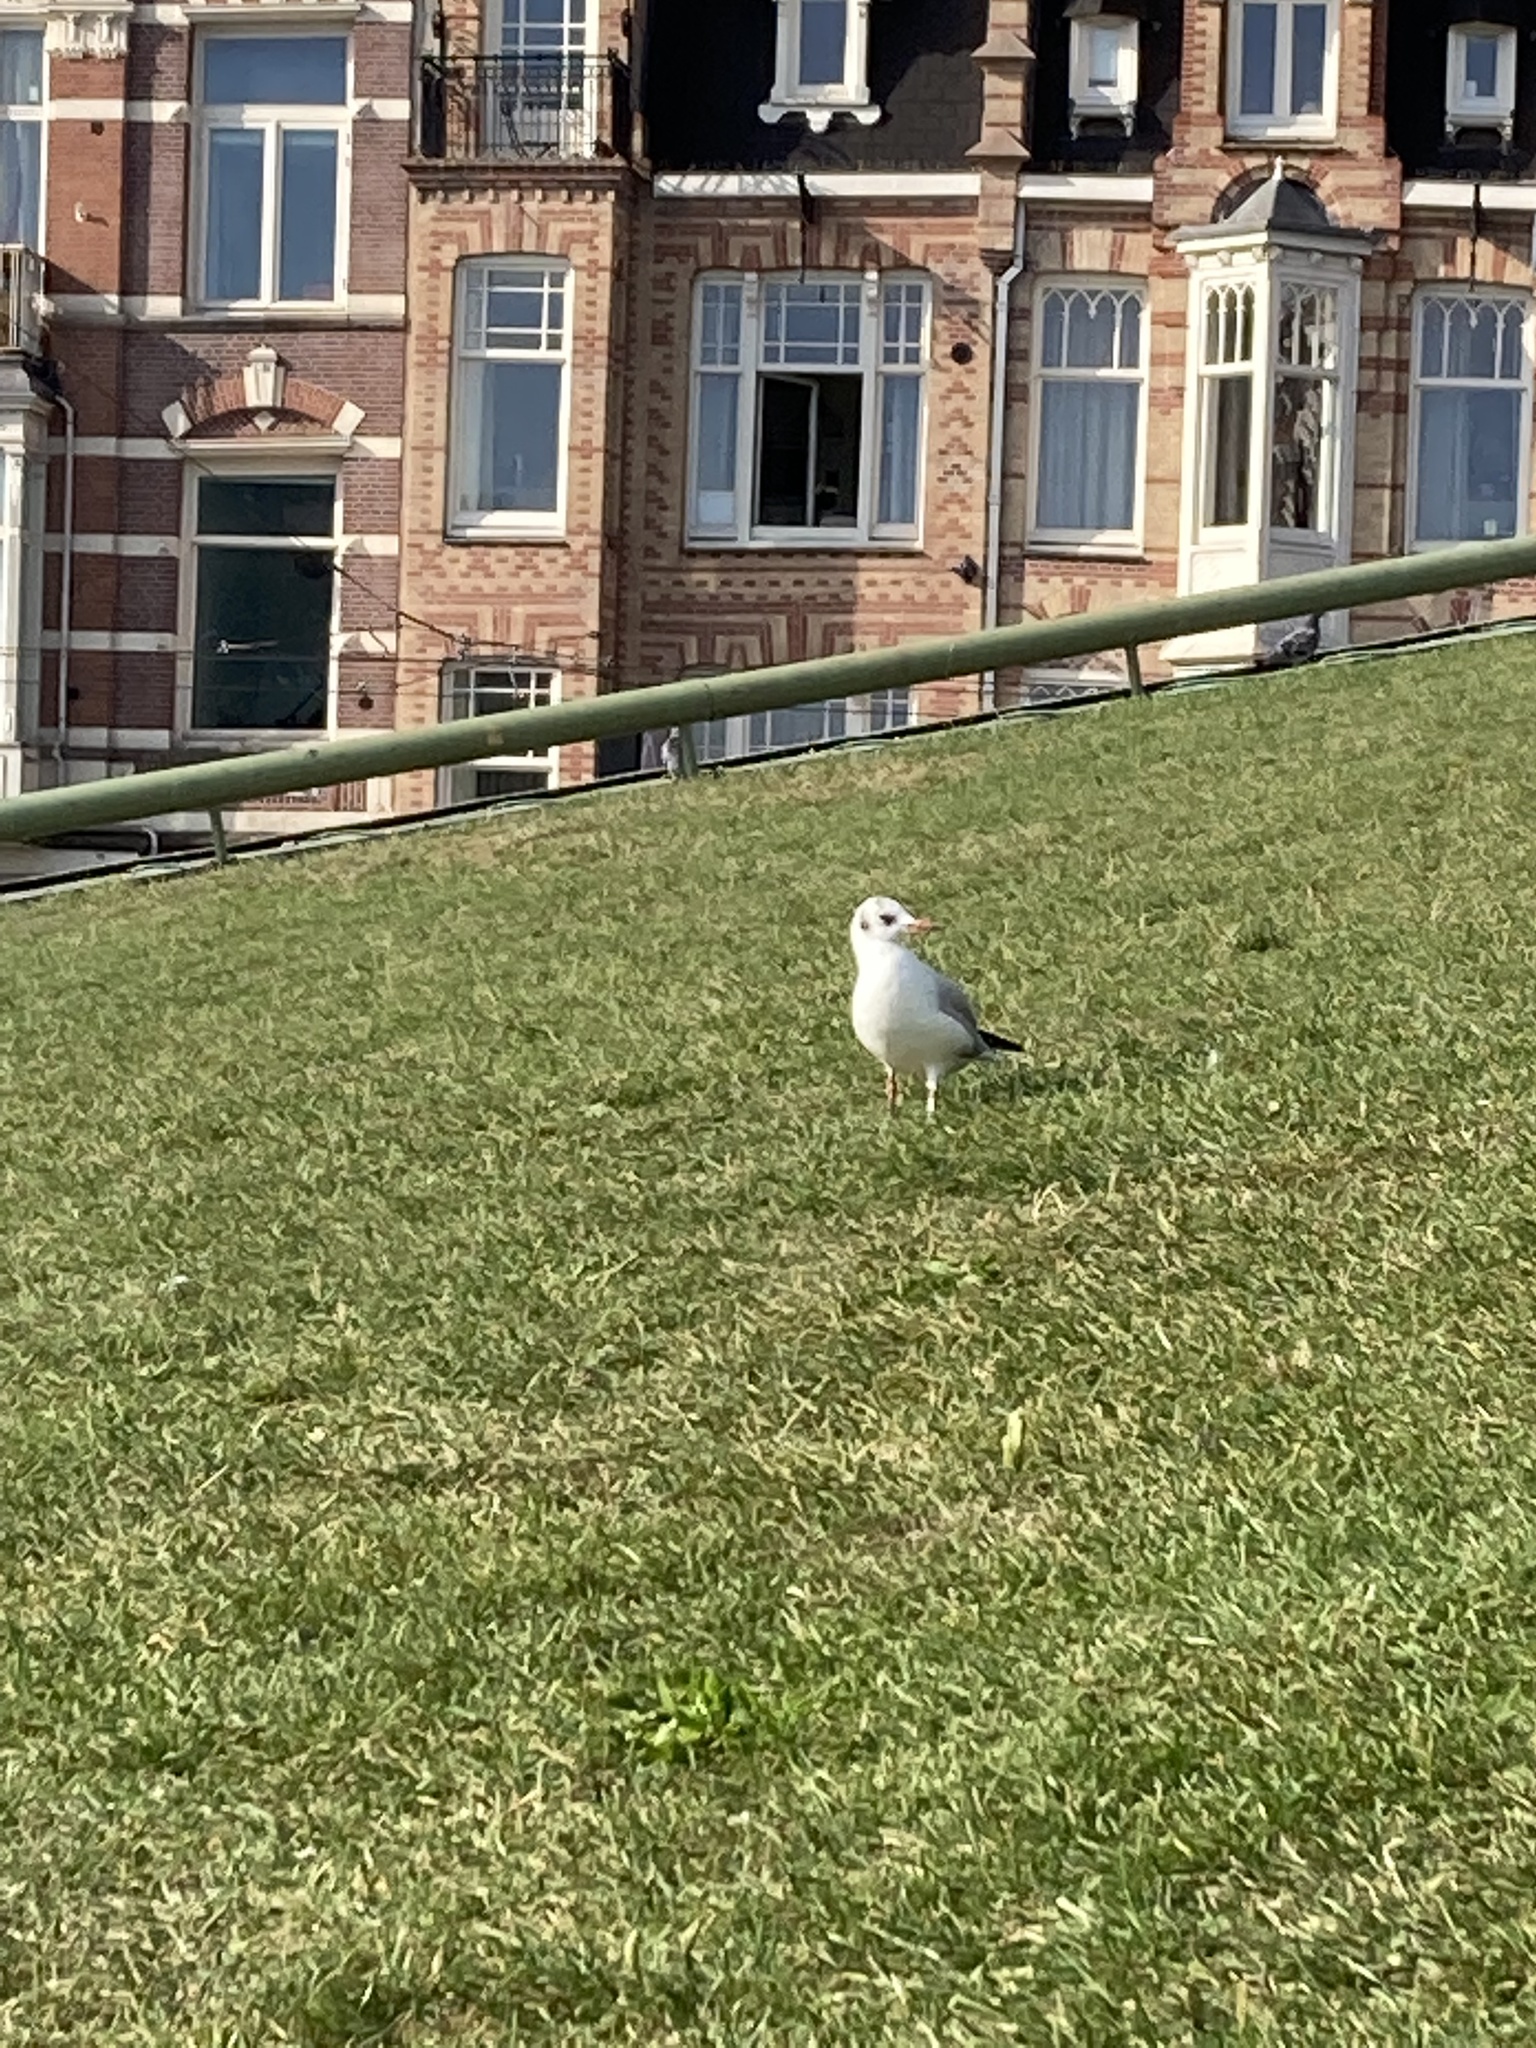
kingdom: Animalia
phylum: Chordata
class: Aves
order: Charadriiformes
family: Laridae
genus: Chroicocephalus
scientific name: Chroicocephalus ridibundus
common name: Black-headed gull
